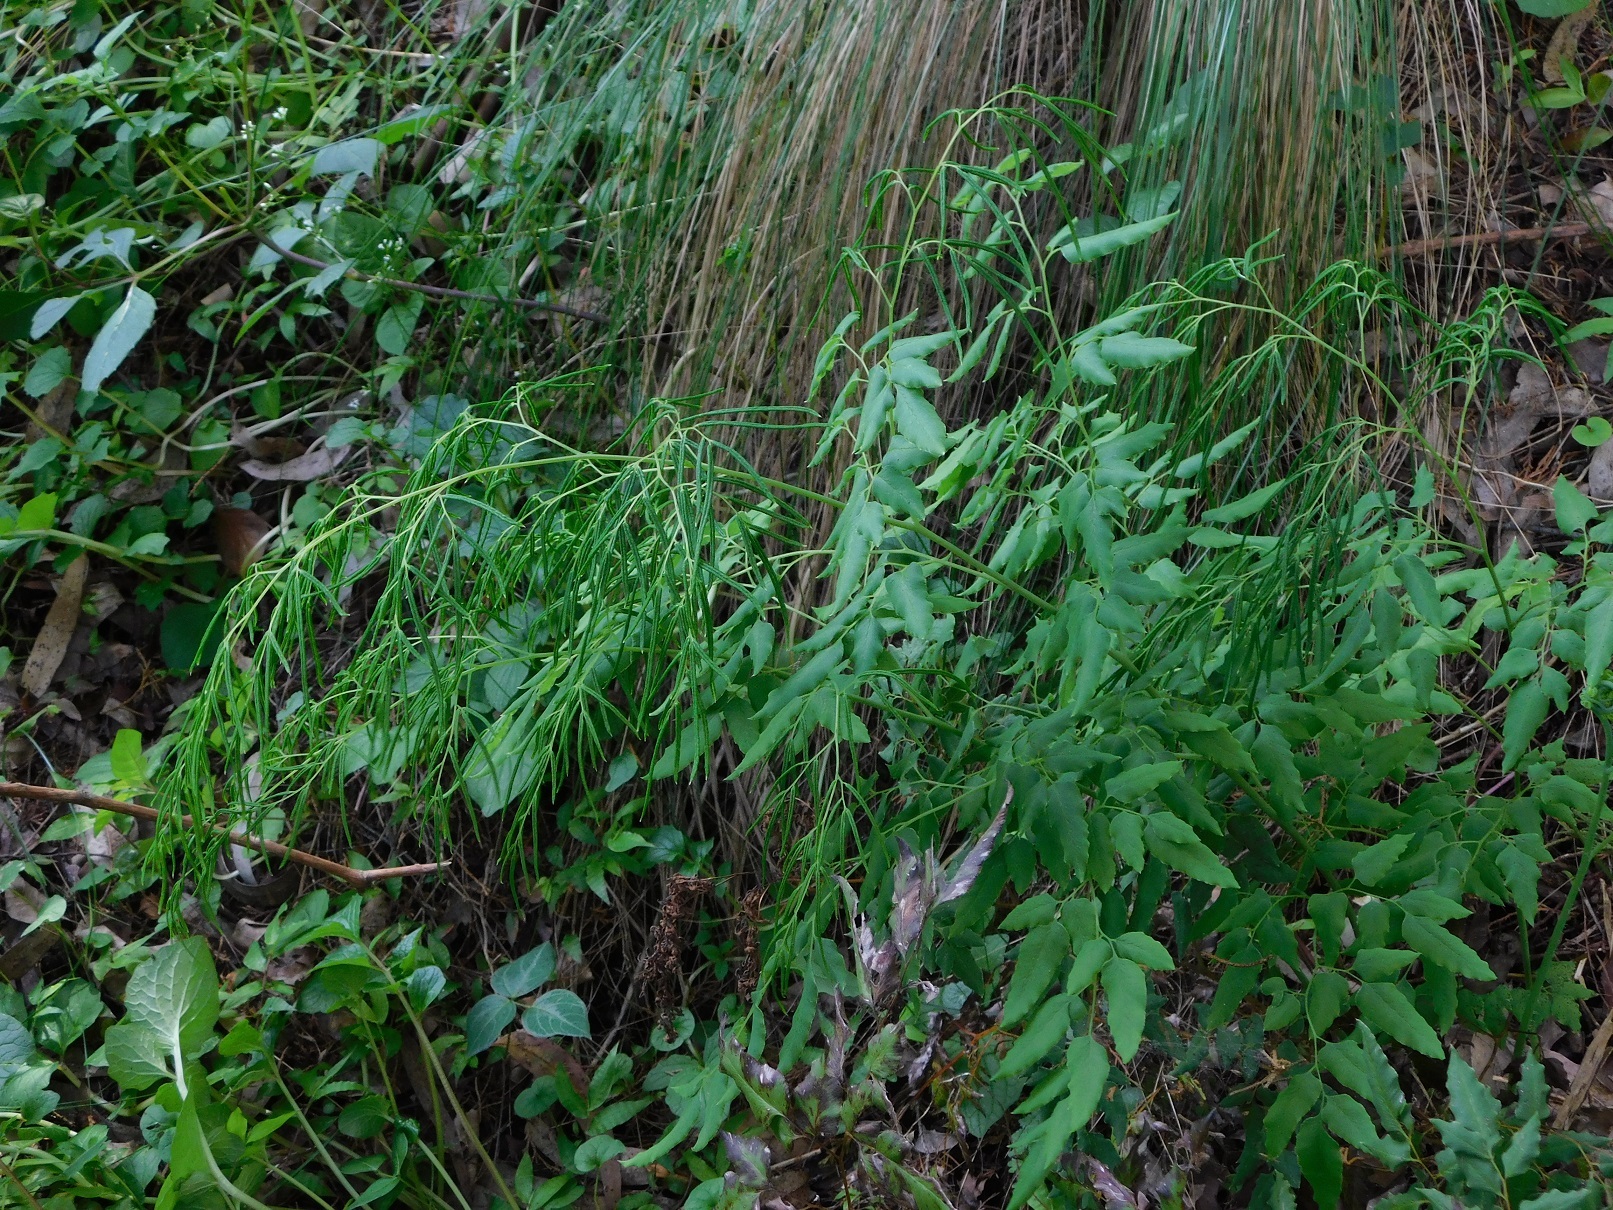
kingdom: Plantae
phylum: Tracheophyta
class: Polypodiopsida
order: Polypodiales
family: Pteridaceae
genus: Llavea
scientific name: Llavea cordifolia
